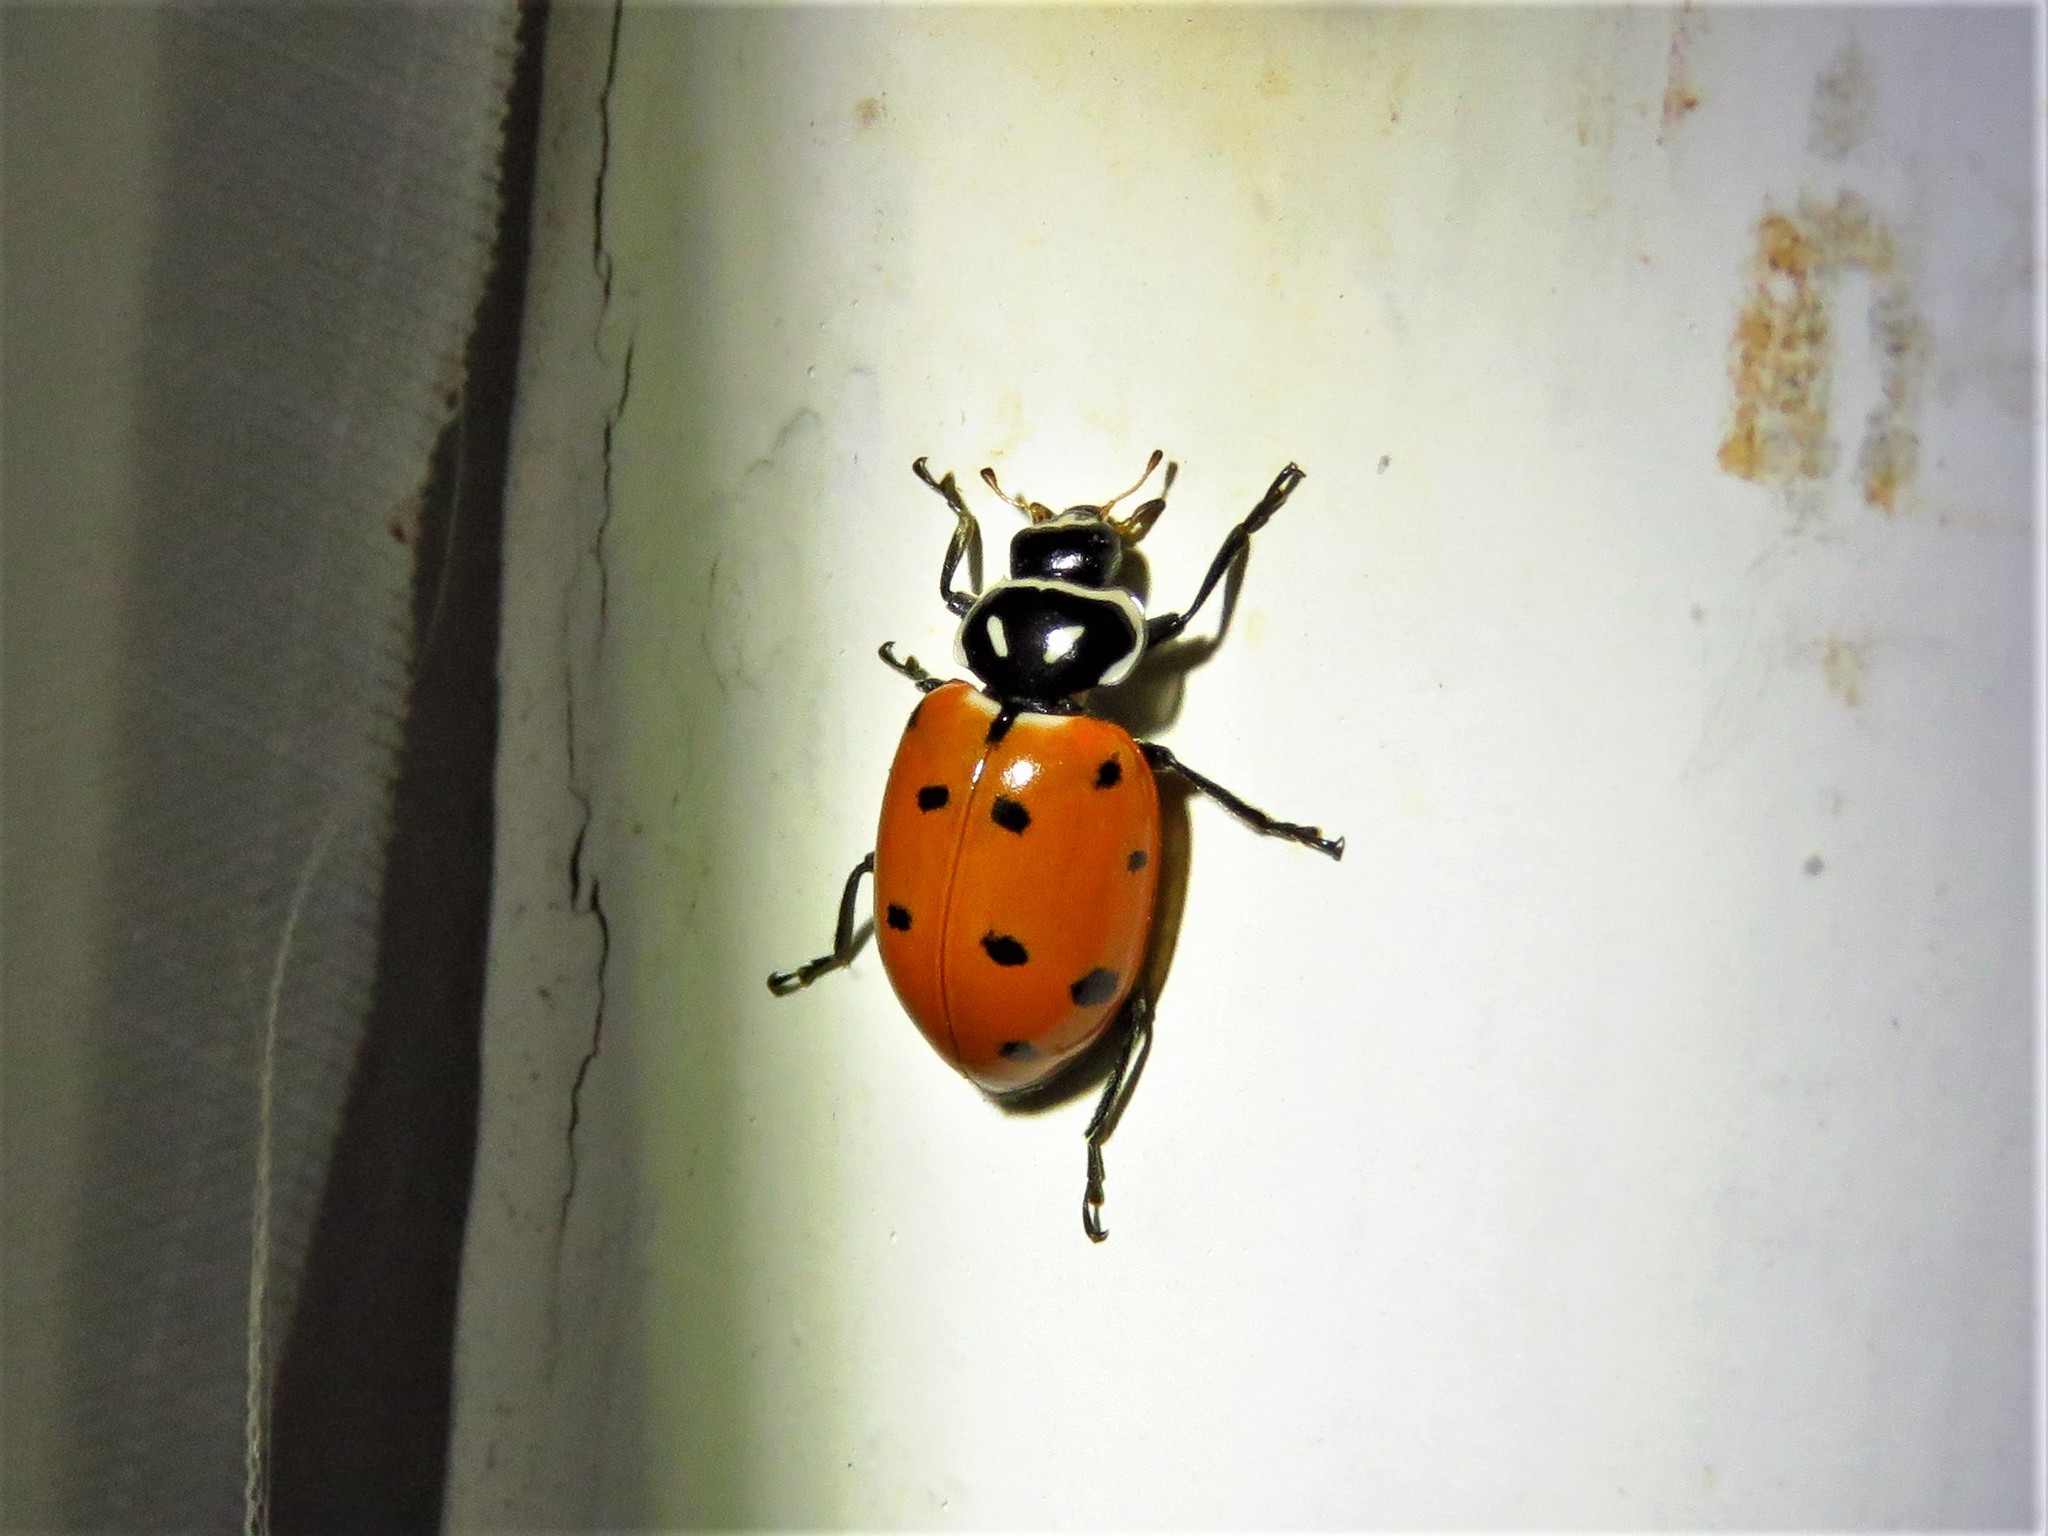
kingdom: Animalia
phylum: Arthropoda
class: Insecta
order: Coleoptera
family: Coccinellidae
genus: Hippodamia
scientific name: Hippodamia convergens
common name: Convergent lady beetle
